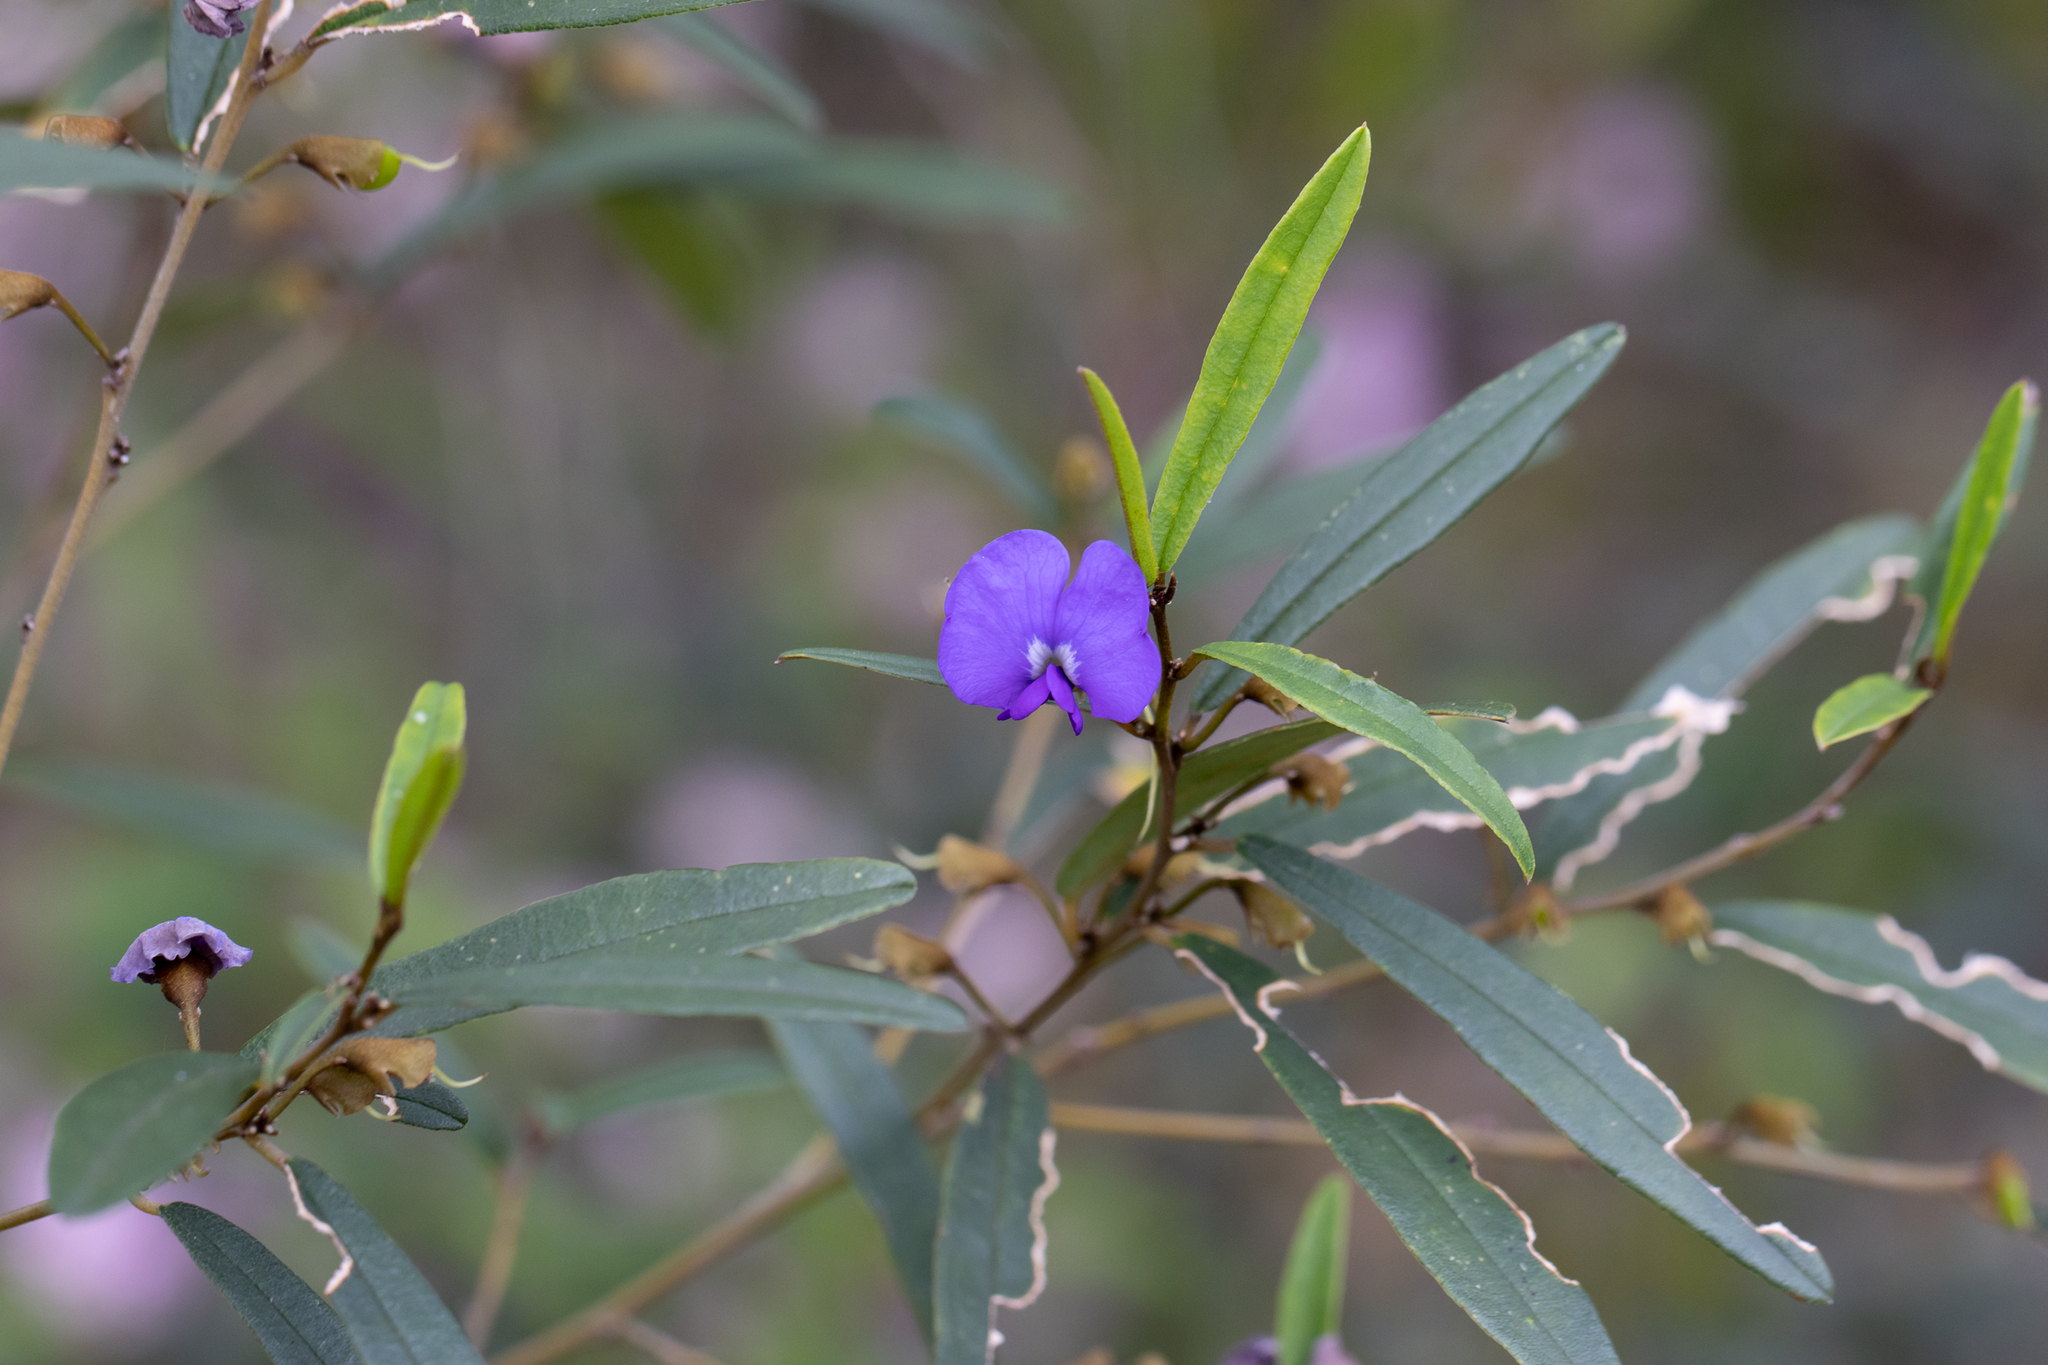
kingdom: Plantae
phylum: Tracheophyta
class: Magnoliopsida
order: Fabales
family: Fabaceae
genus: Hovea
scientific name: Hovea elliptica
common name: Tree hovea
